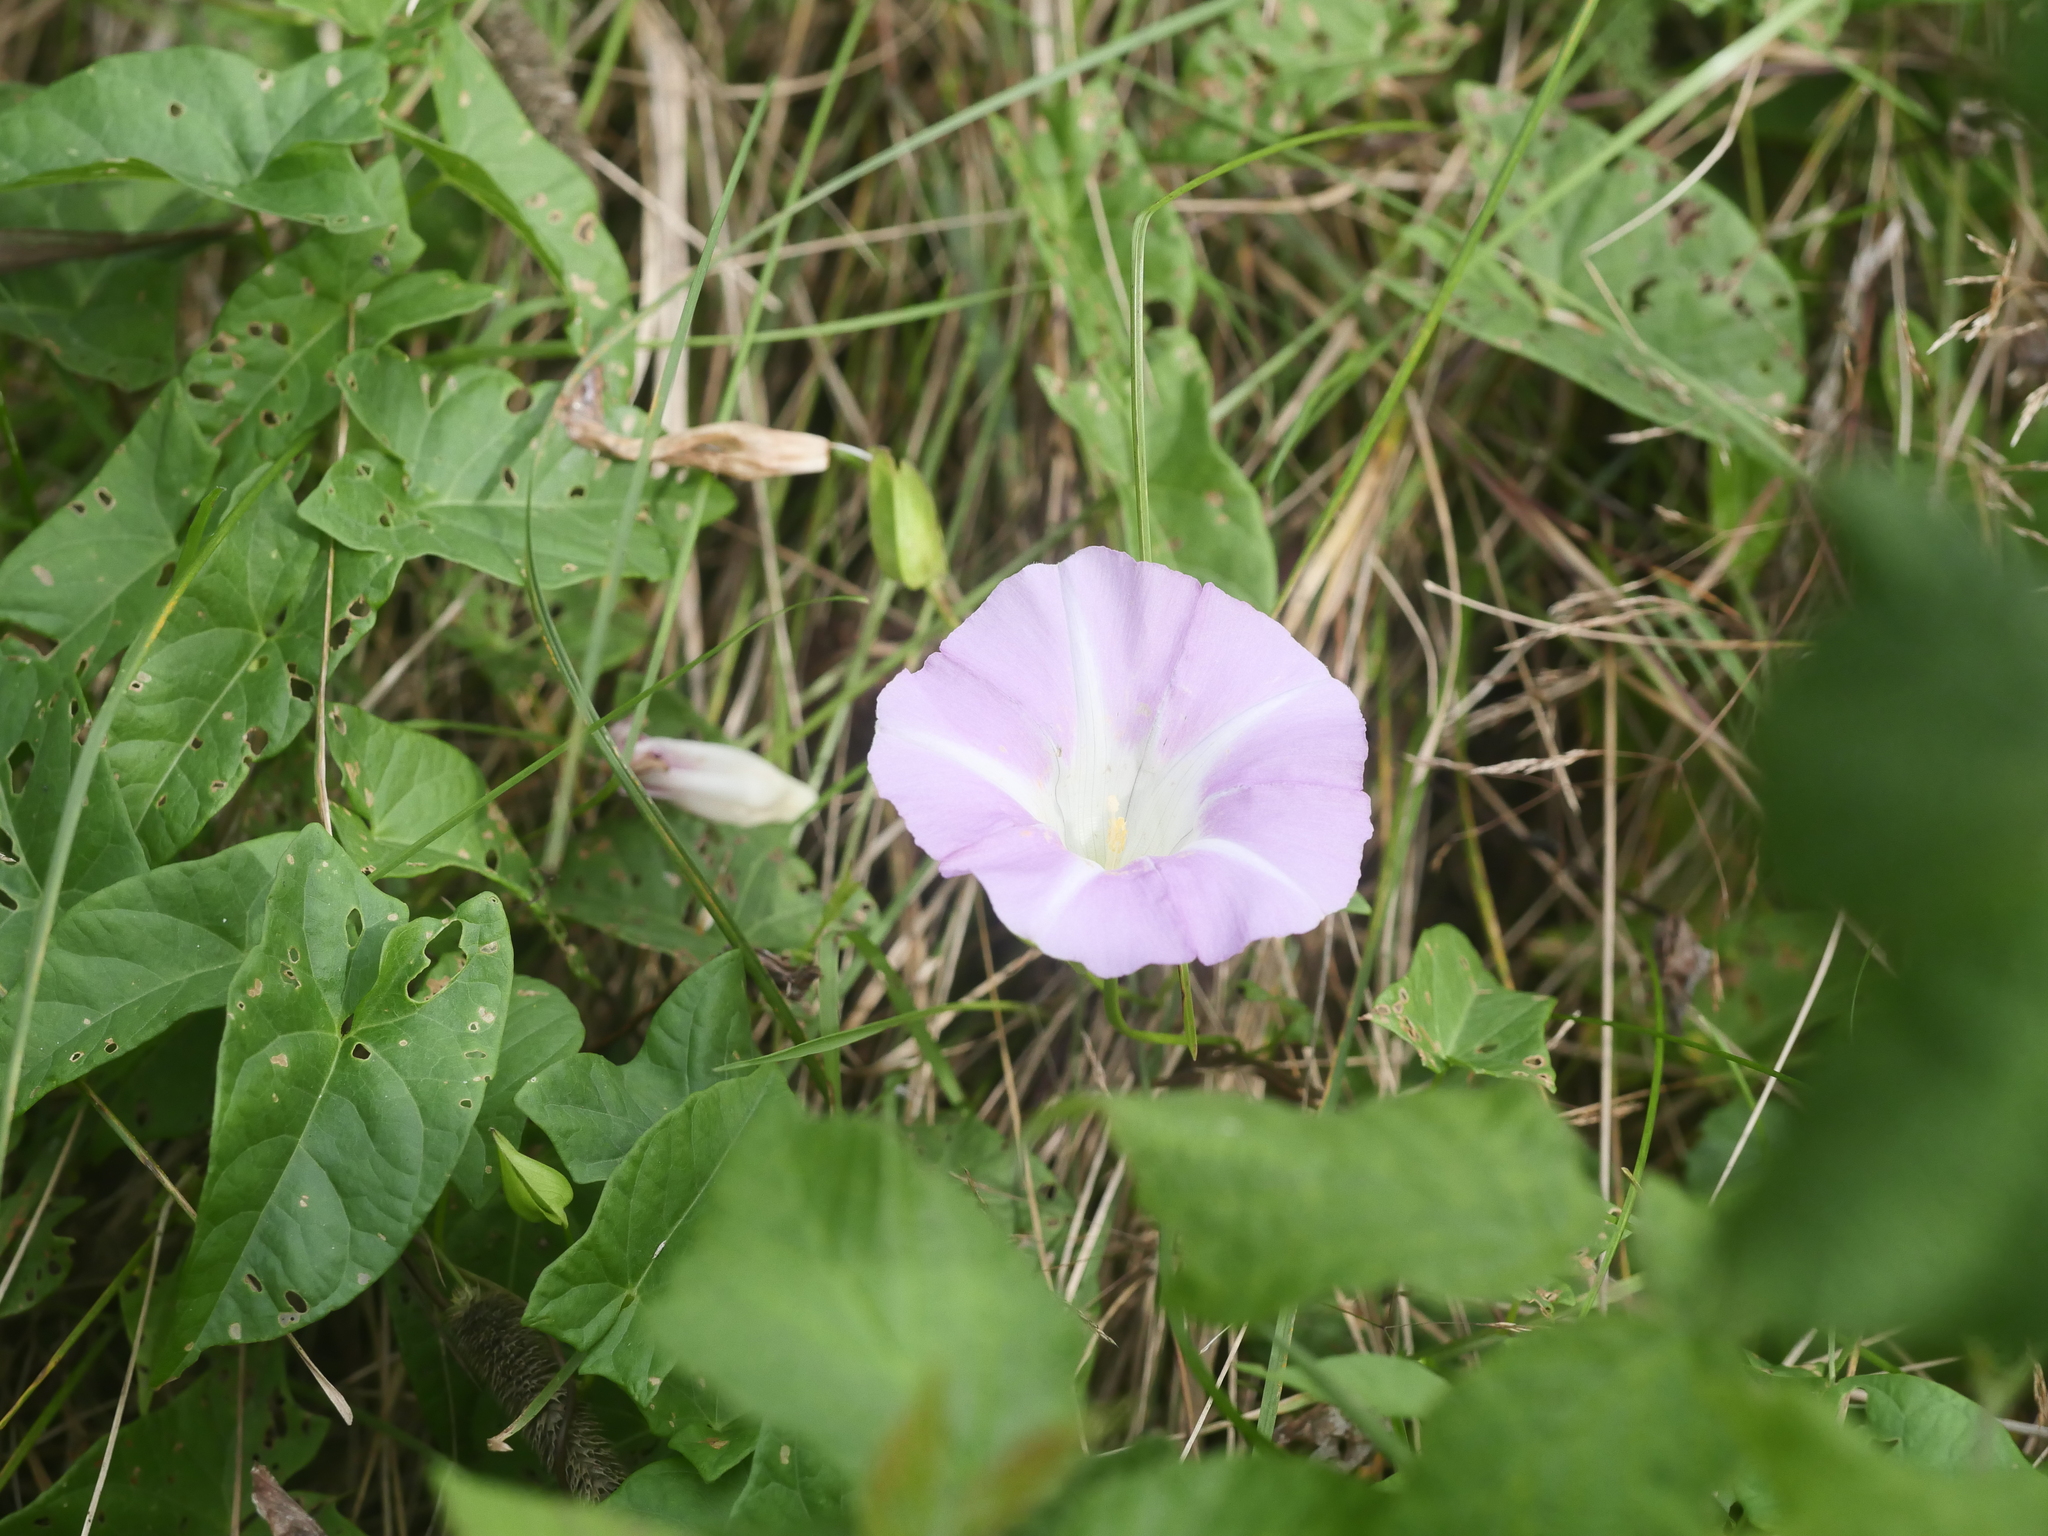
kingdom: Plantae
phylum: Tracheophyta
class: Magnoliopsida
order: Solanales
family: Convolvulaceae
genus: Calystegia
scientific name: Calystegia sepium
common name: Hedge bindweed
